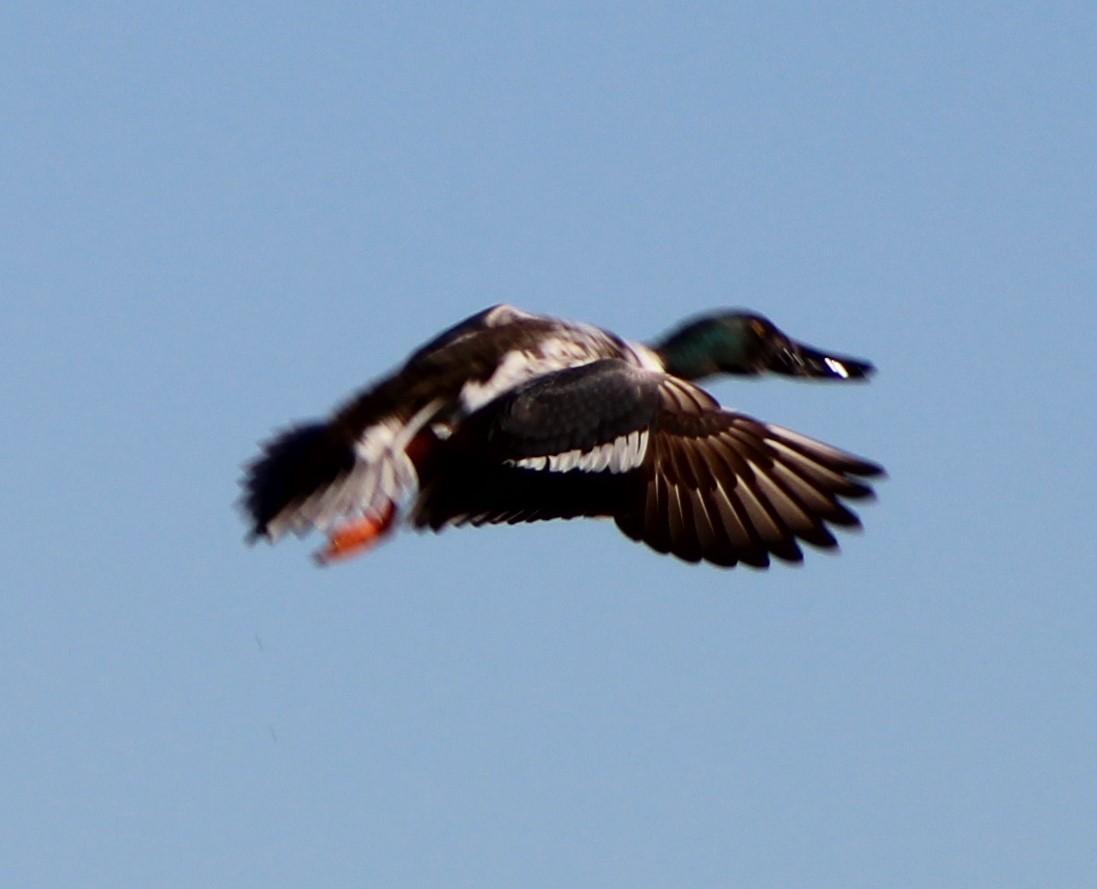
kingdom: Animalia
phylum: Chordata
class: Aves
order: Anseriformes
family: Anatidae
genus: Spatula
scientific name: Spatula clypeata
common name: Northern shoveler
